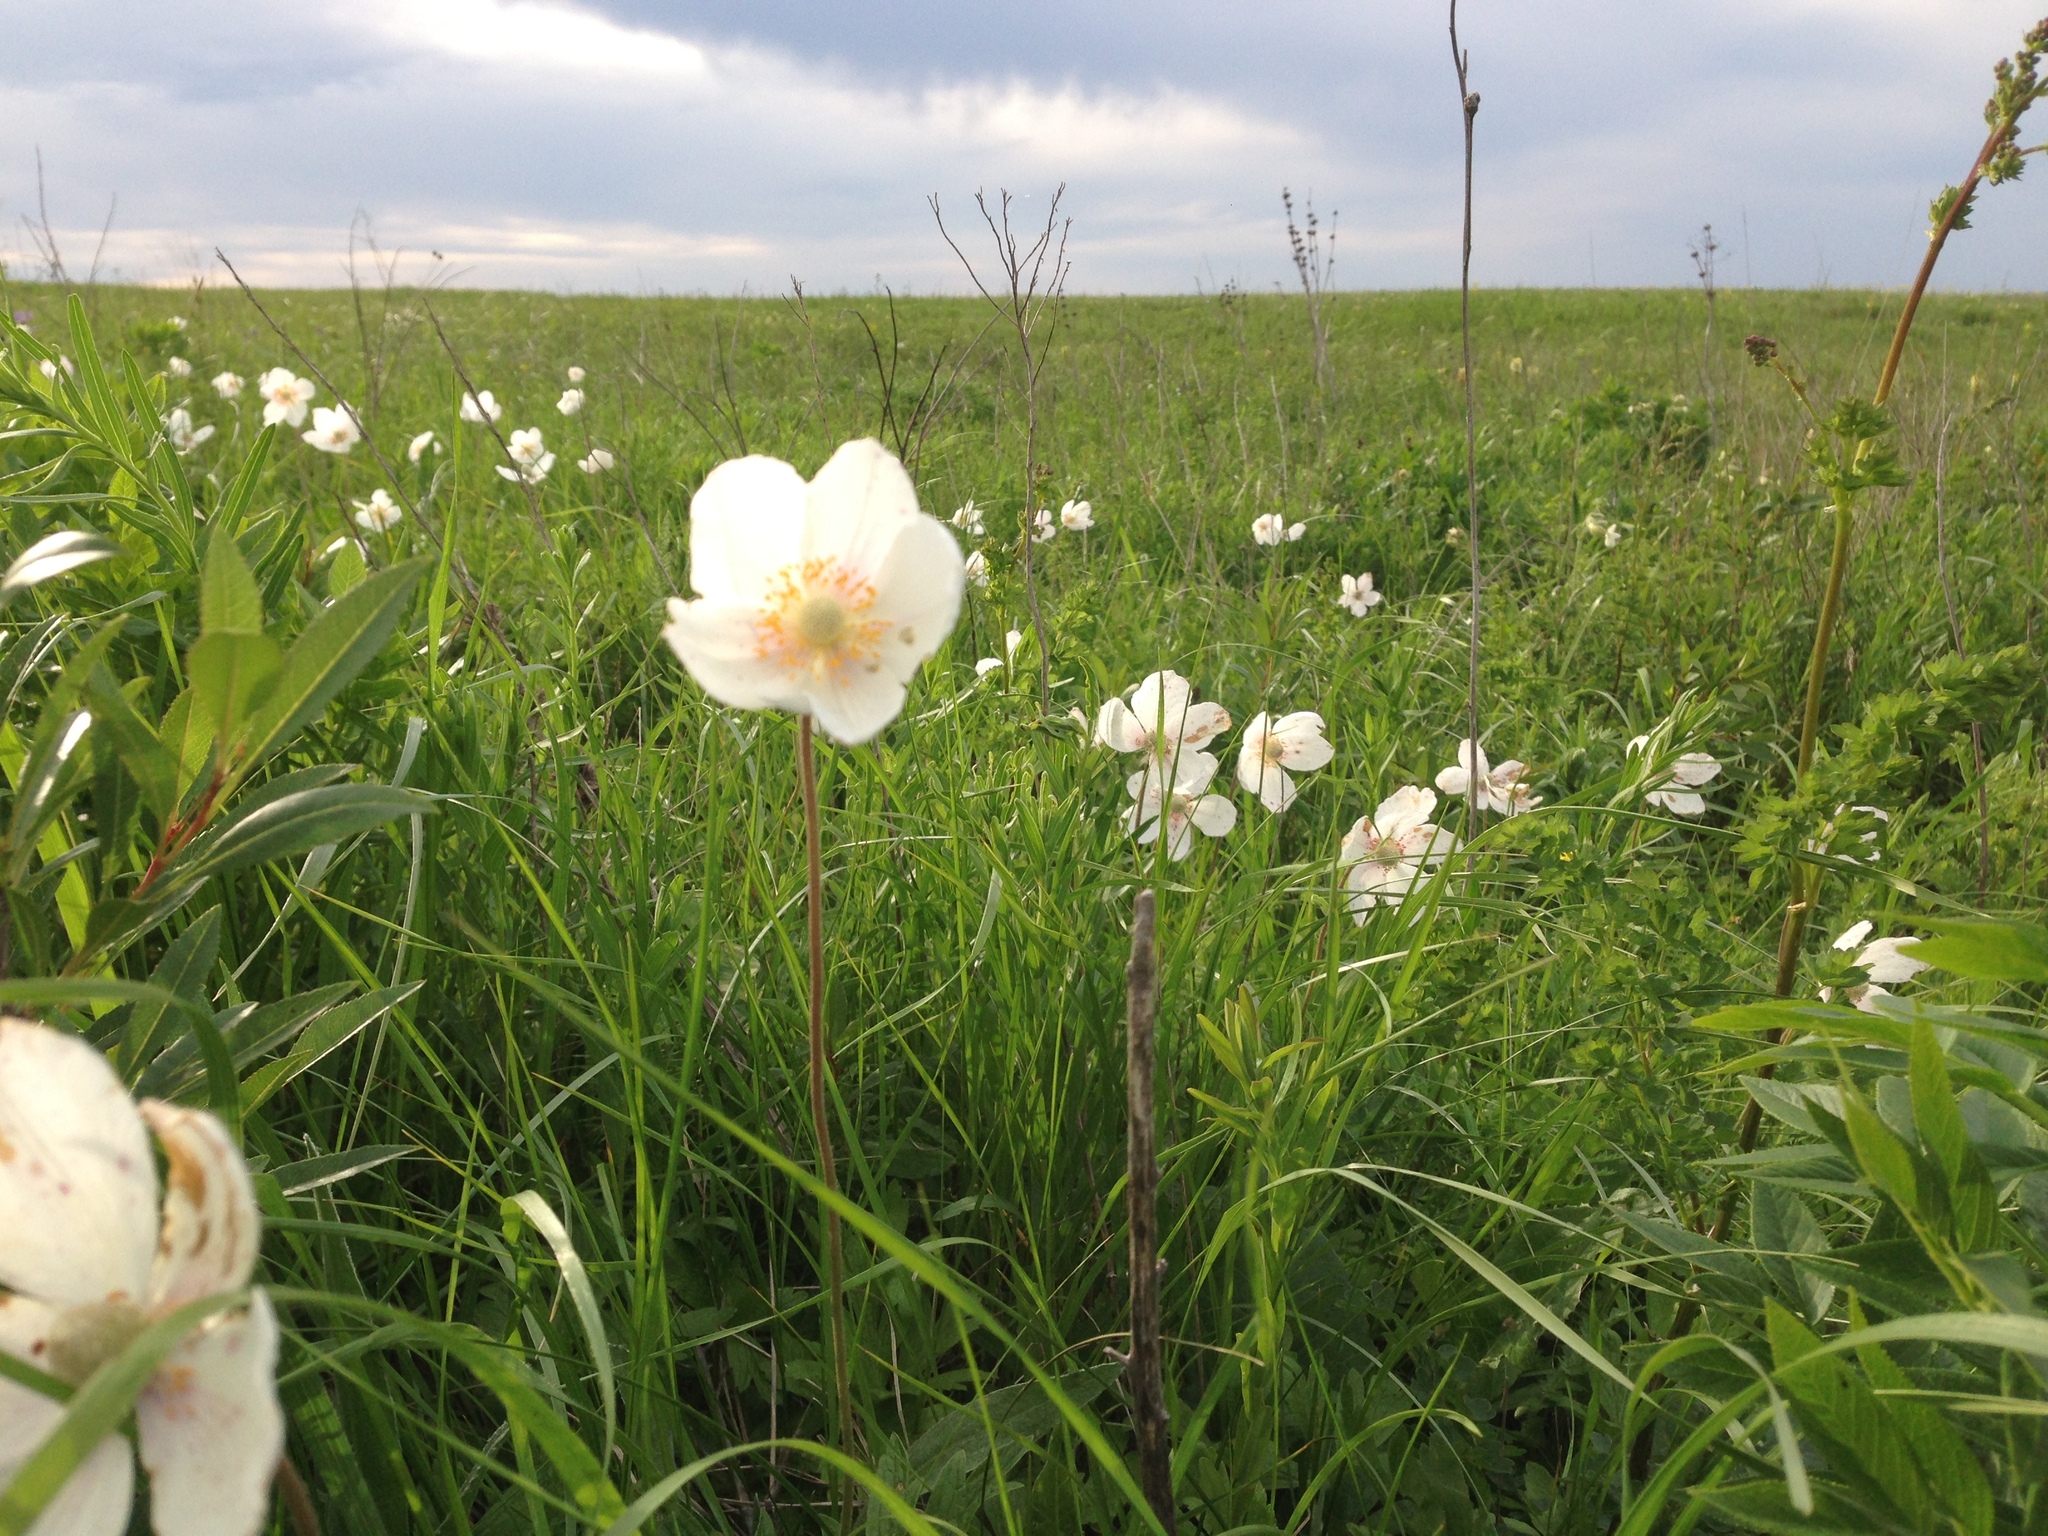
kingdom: Plantae
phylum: Tracheophyta
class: Magnoliopsida
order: Ranunculales
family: Ranunculaceae
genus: Anemone
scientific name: Anemone sylvestris
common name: Snowdrop anemone
